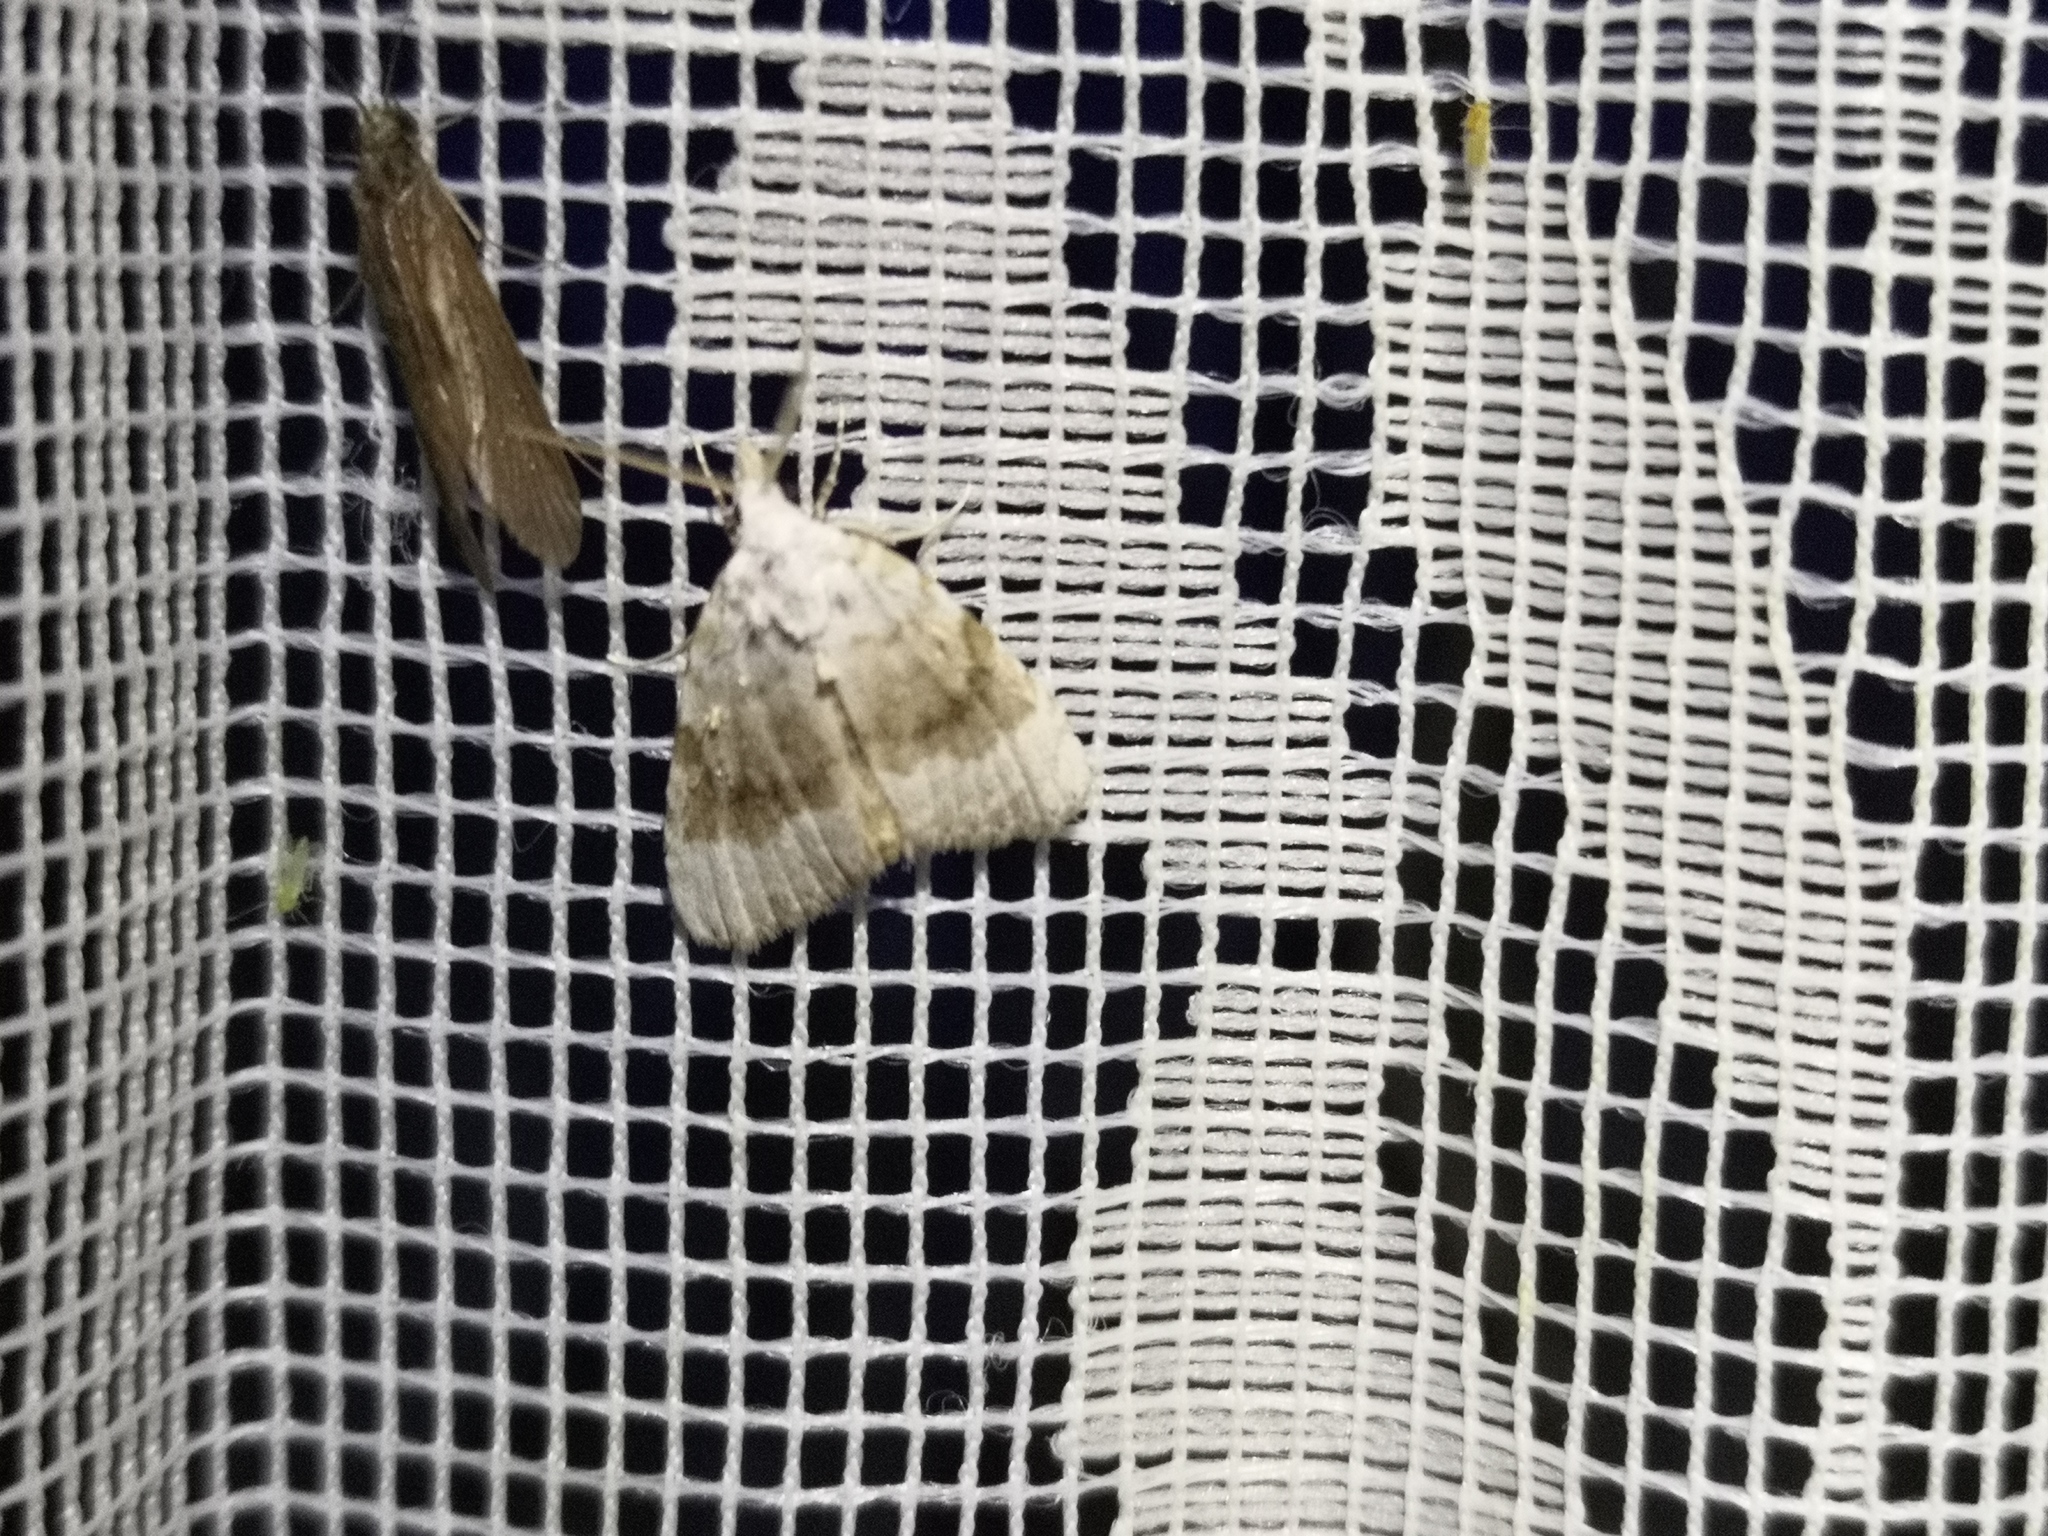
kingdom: Animalia
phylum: Arthropoda
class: Insecta
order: Lepidoptera
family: Nolidae
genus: Meganola
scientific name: Meganola albula
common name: Kent black arches
